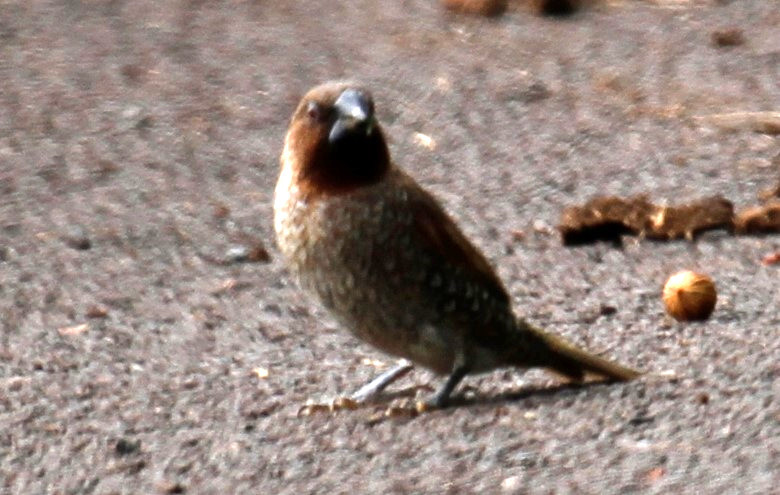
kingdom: Animalia
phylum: Chordata
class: Aves
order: Passeriformes
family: Estrildidae
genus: Lonchura
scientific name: Lonchura punctulata
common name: Scaly-breasted munia
